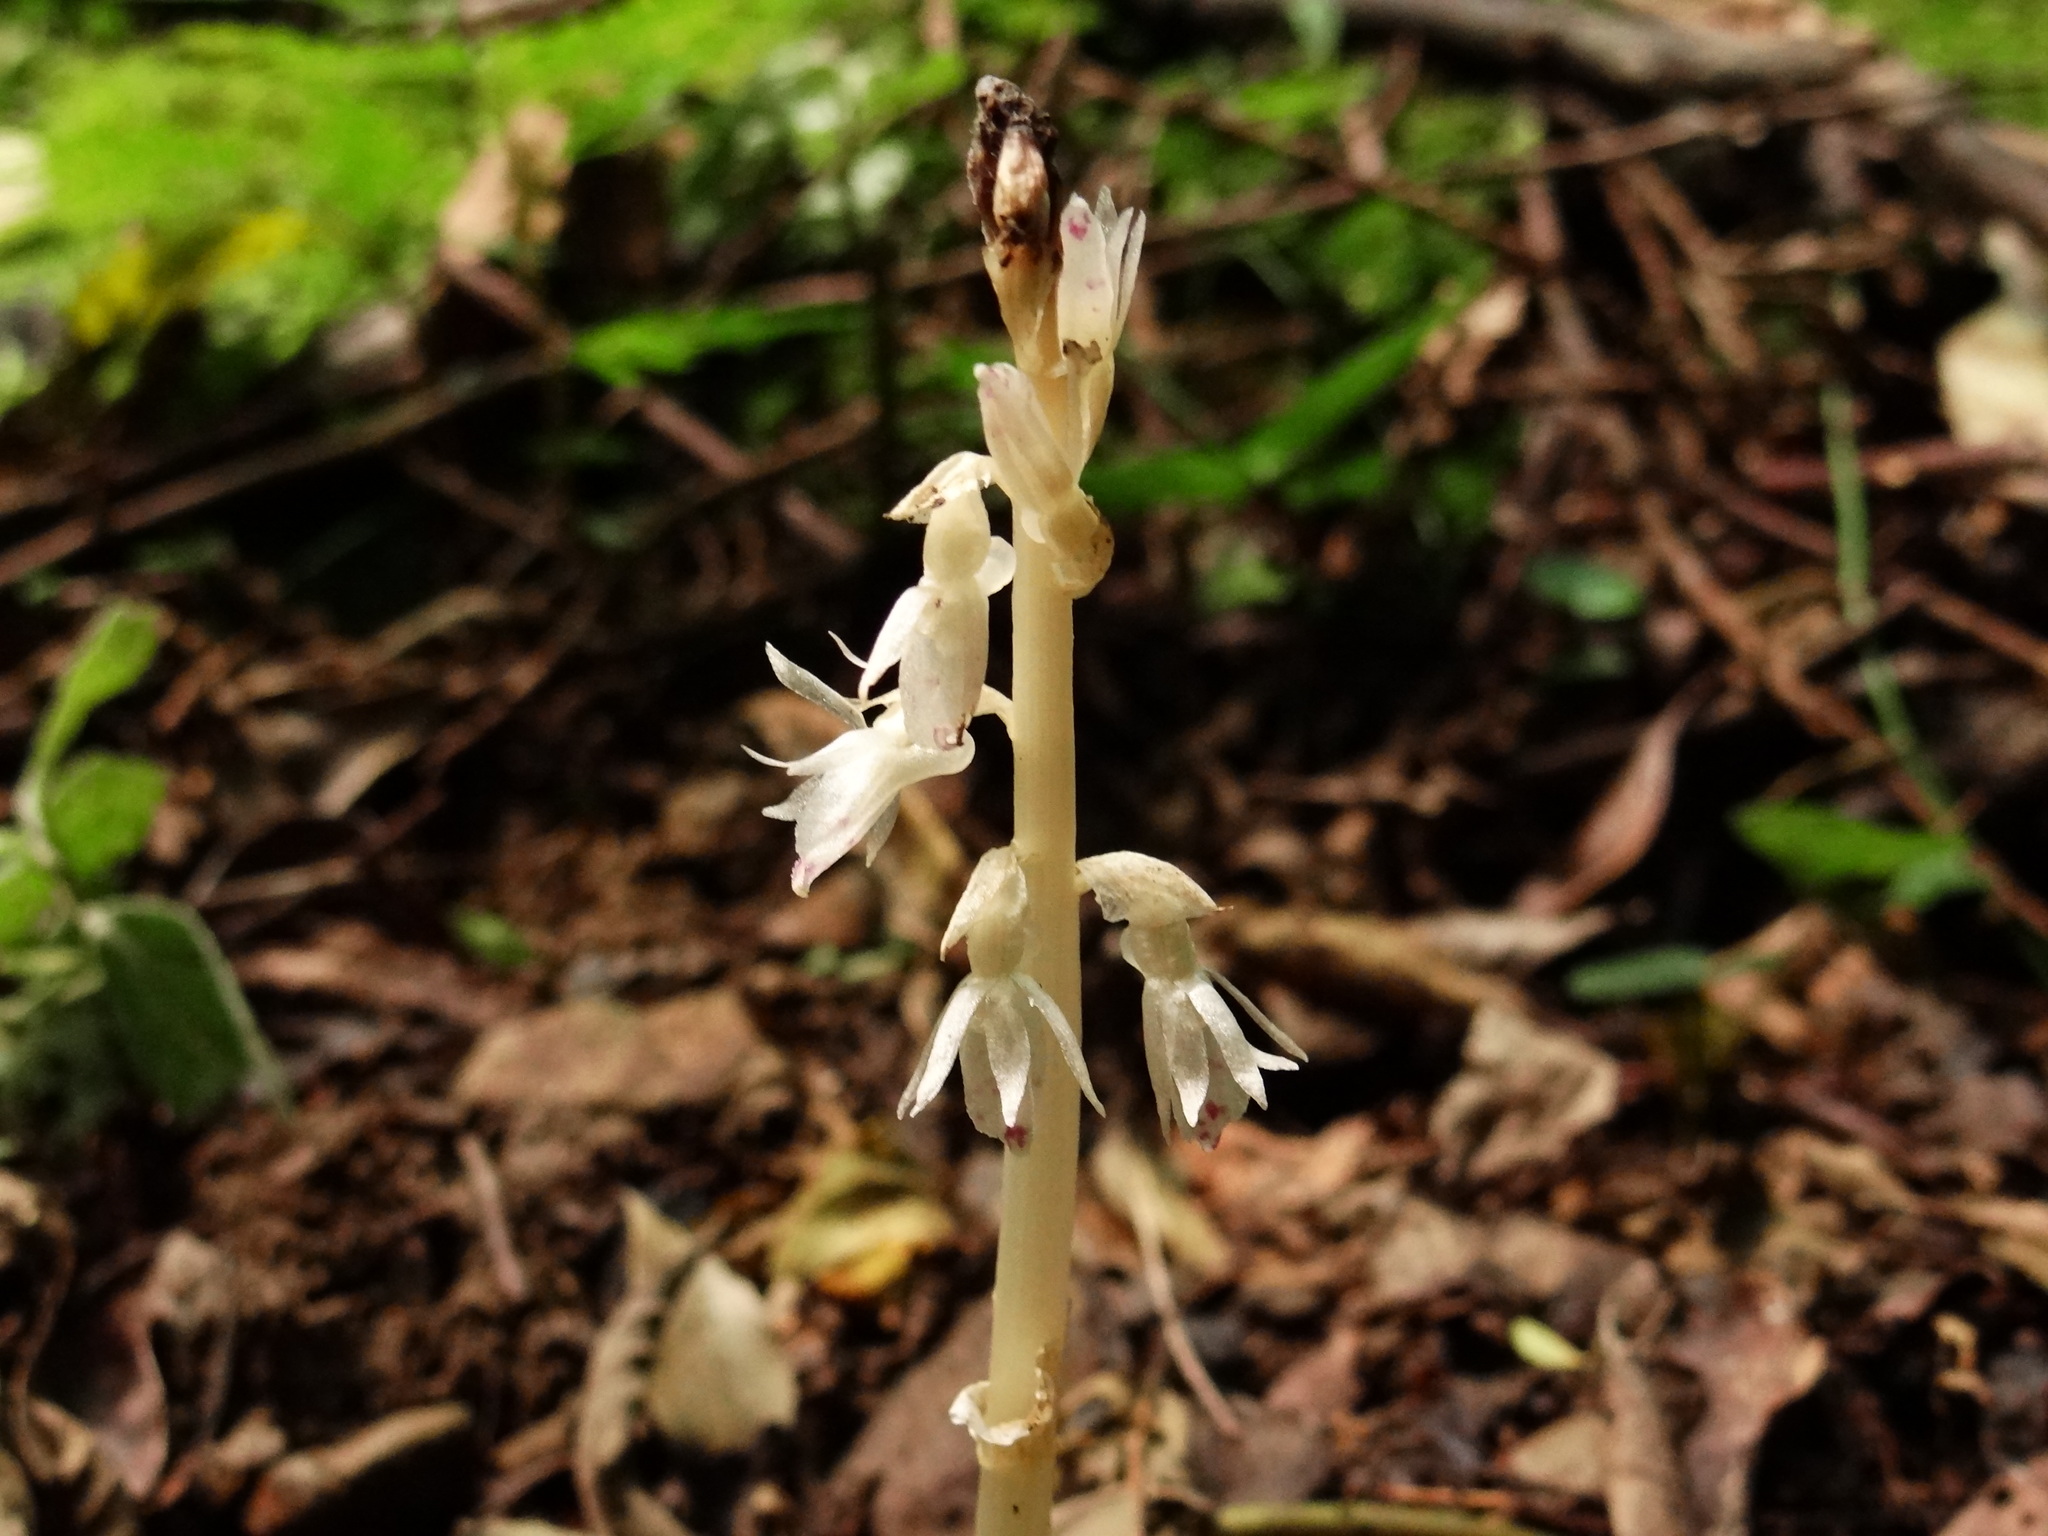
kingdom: Plantae
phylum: Tracheophyta
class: Liliopsida
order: Asparagales
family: Orchidaceae
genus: Epipogium
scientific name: Epipogium roseum
